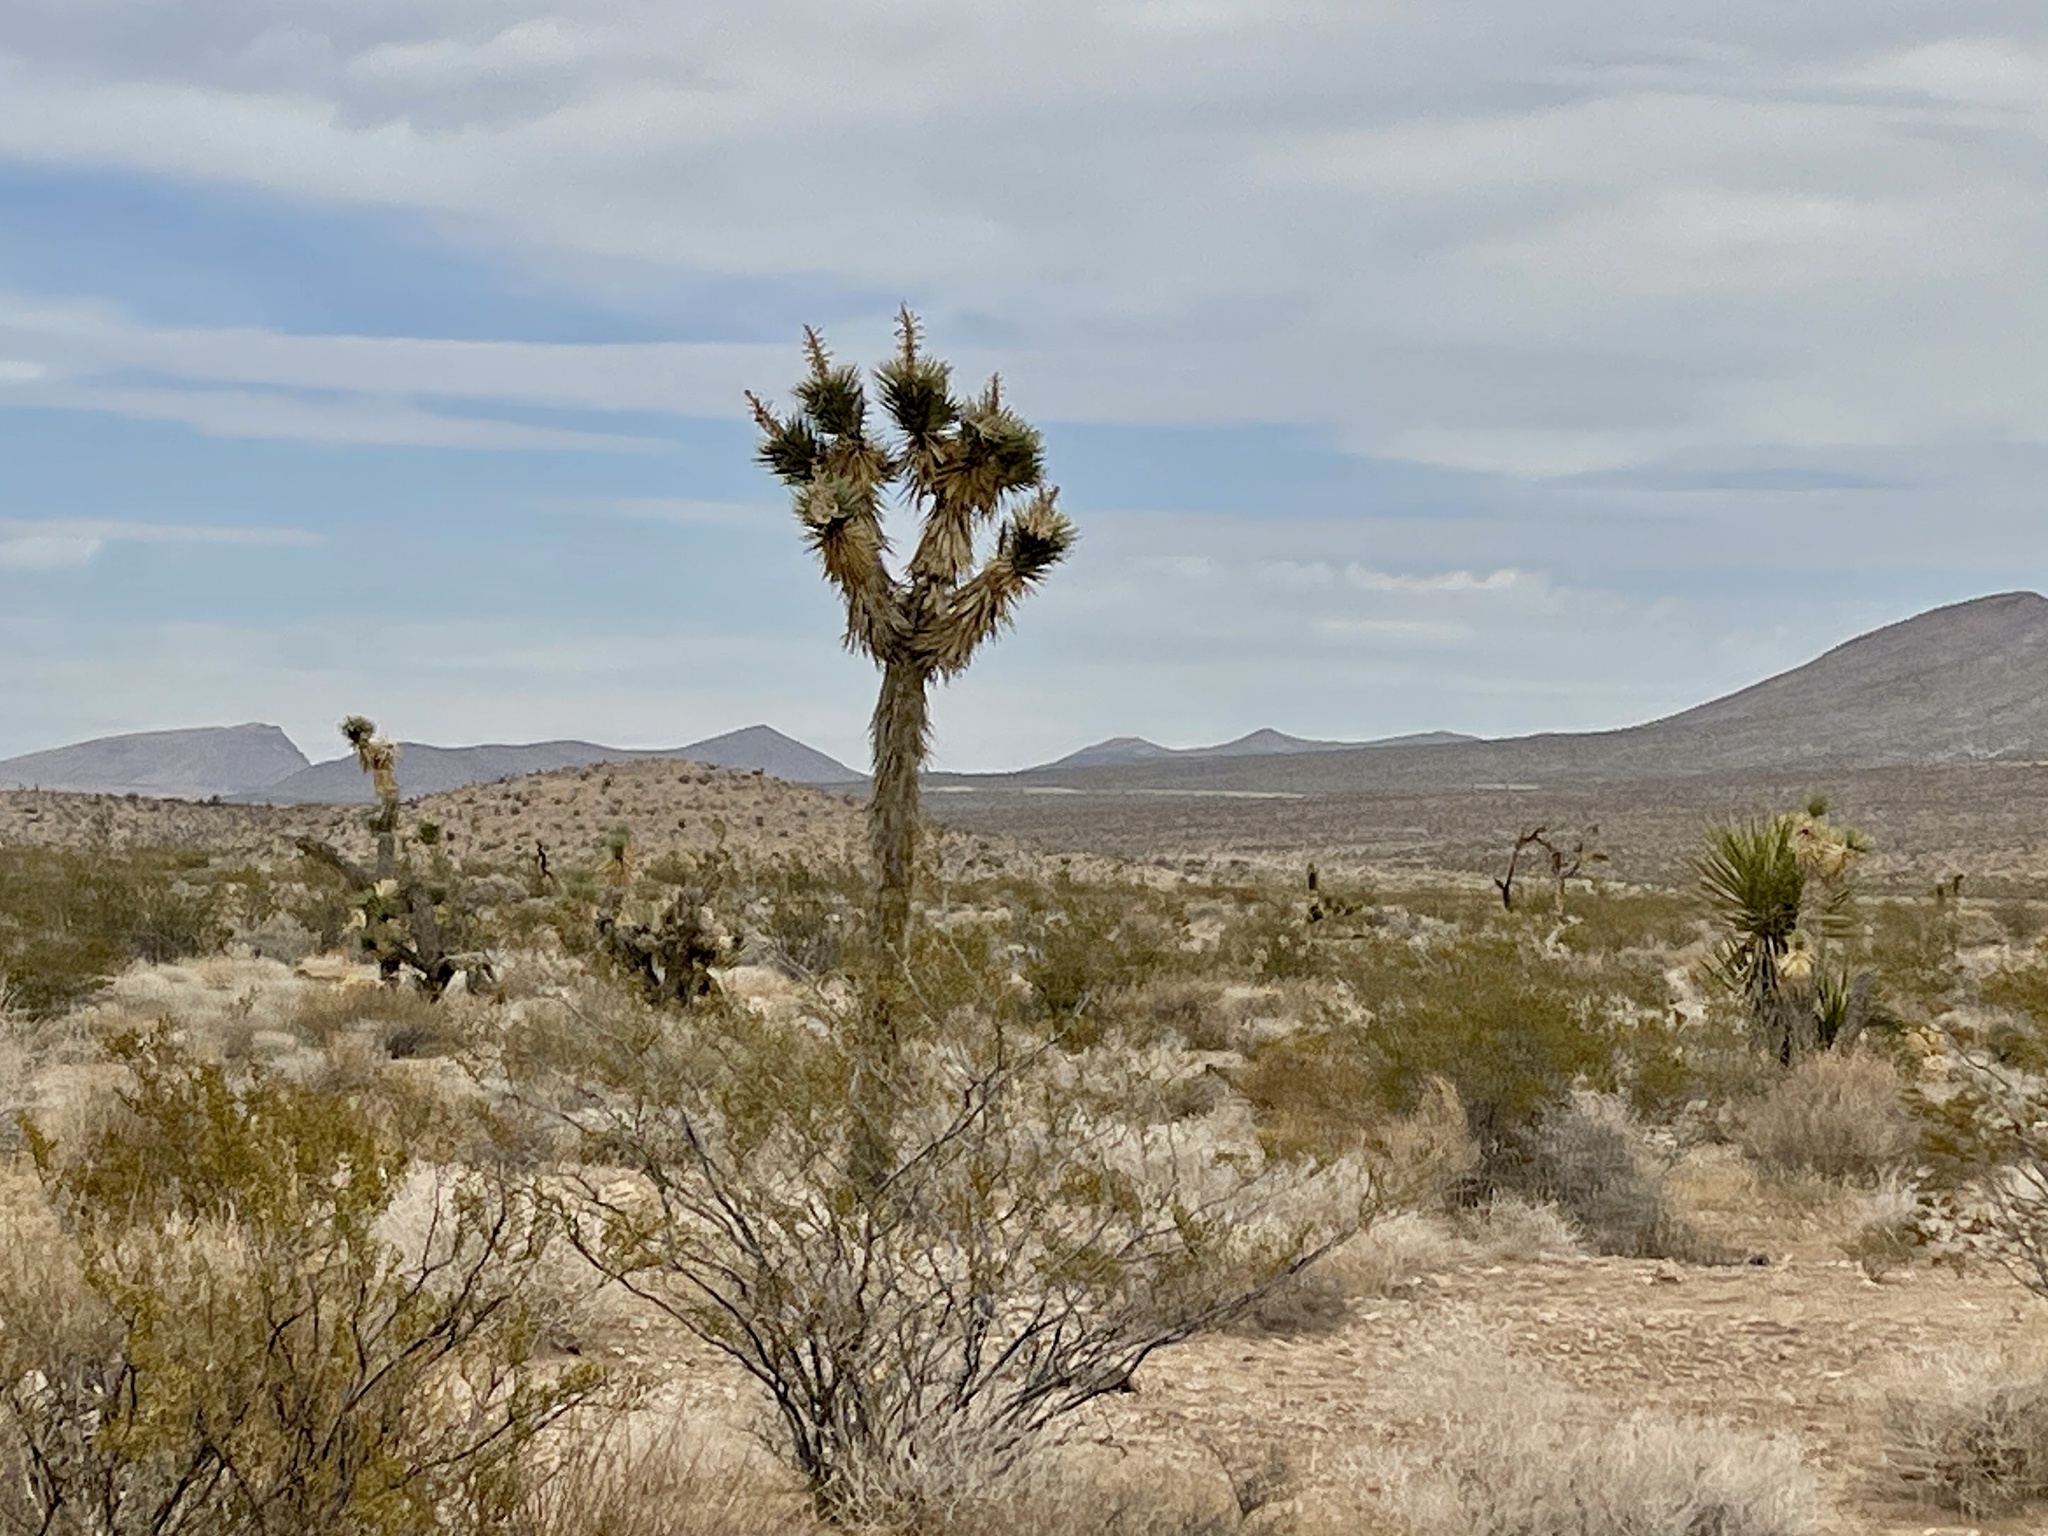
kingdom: Plantae
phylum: Tracheophyta
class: Liliopsida
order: Asparagales
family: Asparagaceae
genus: Yucca
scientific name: Yucca brevifolia
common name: Joshua tree
